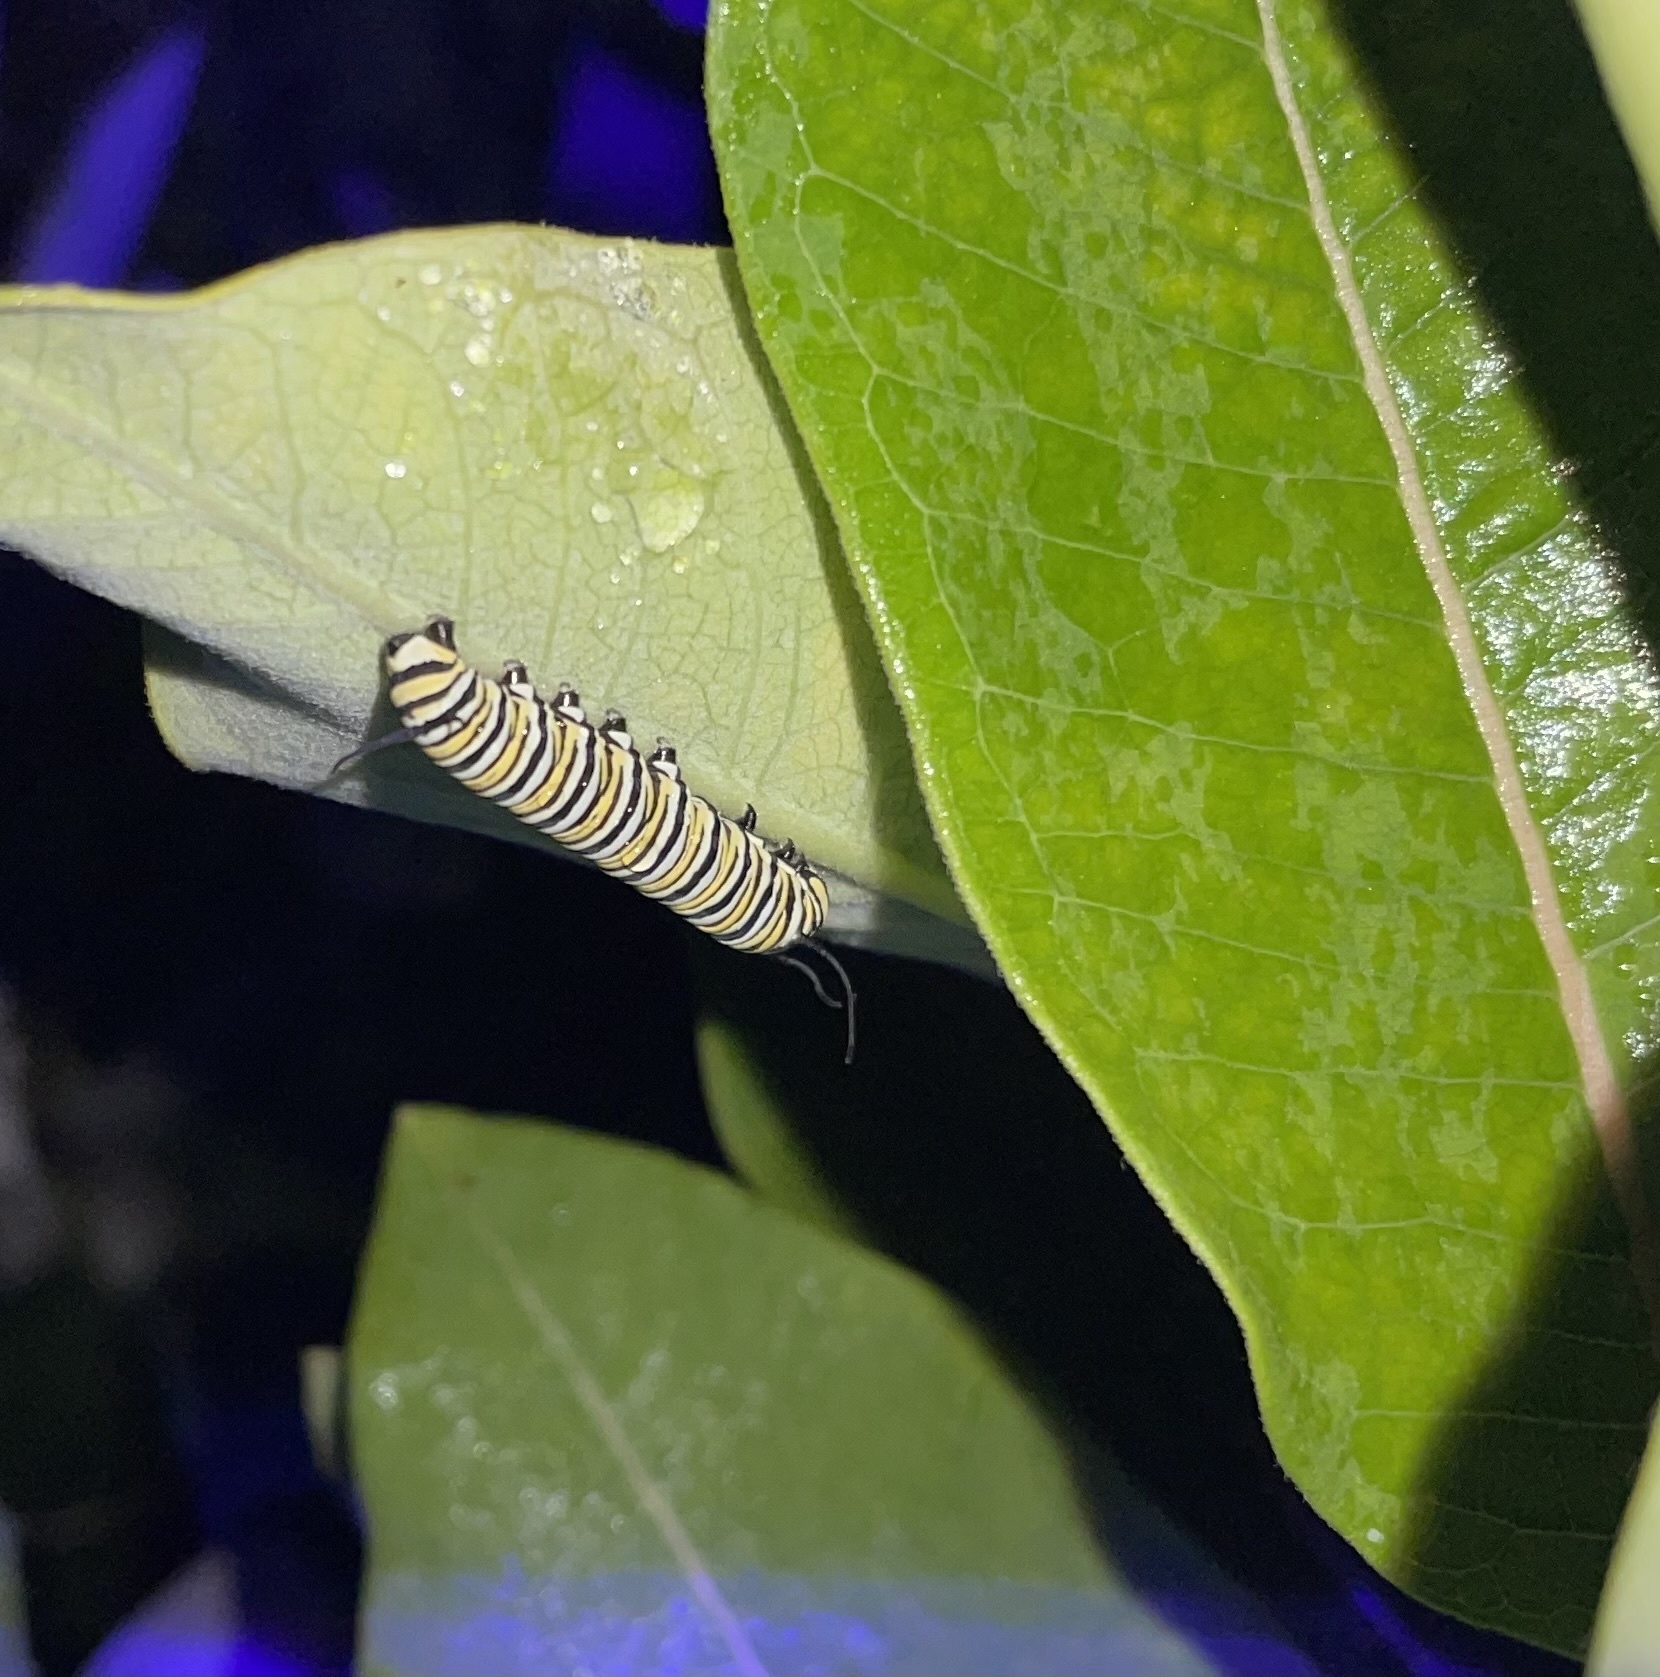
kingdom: Animalia
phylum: Arthropoda
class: Insecta
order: Lepidoptera
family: Nymphalidae
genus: Danaus
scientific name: Danaus plexippus
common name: Monarch
